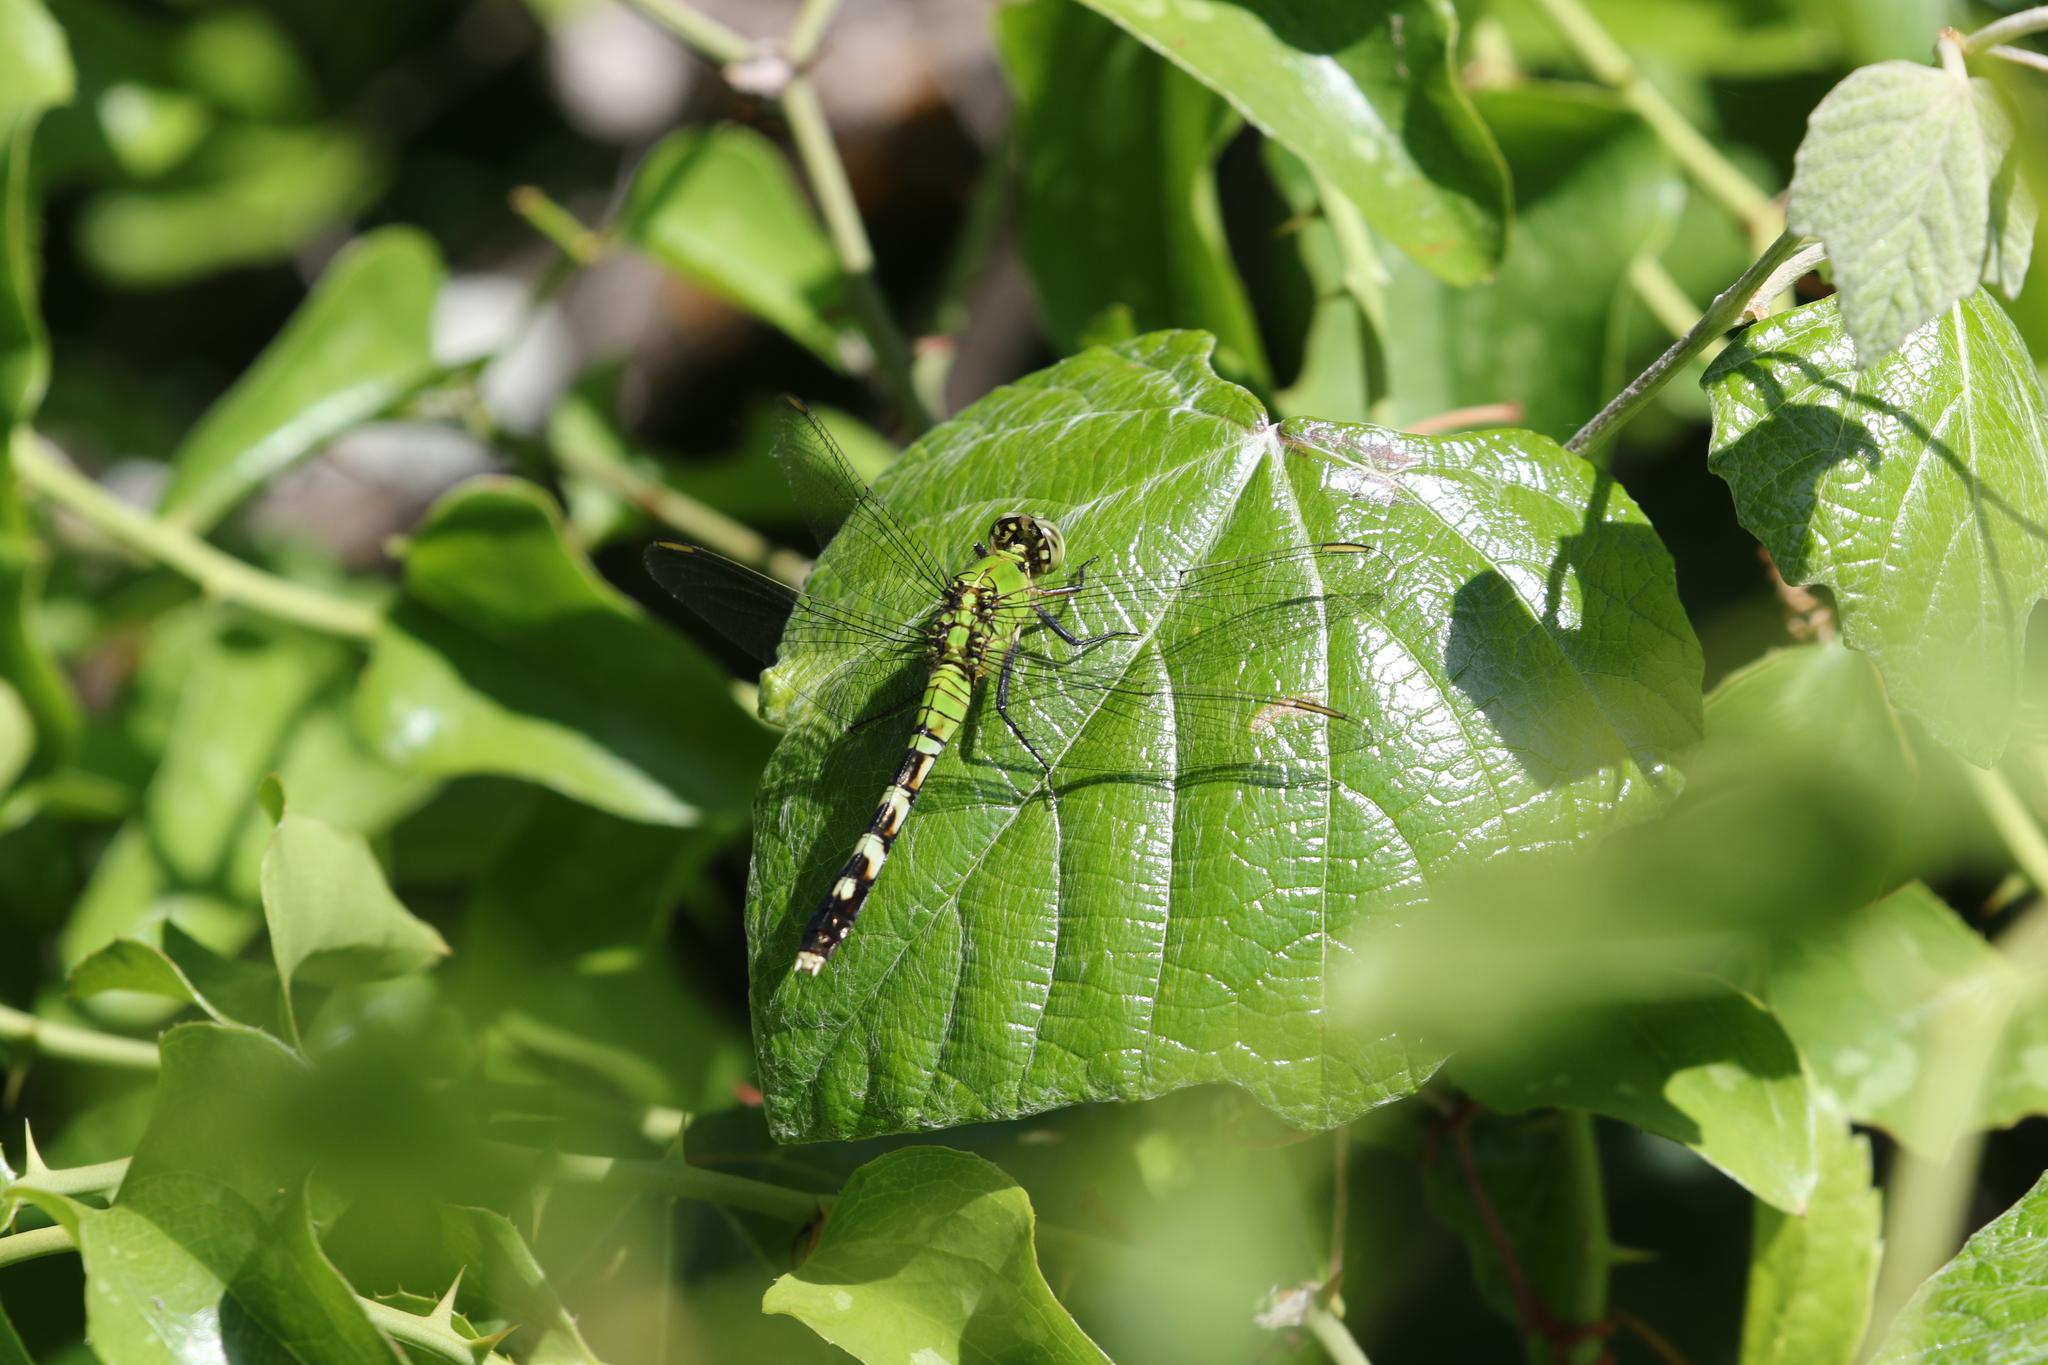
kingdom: Animalia
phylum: Arthropoda
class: Insecta
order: Odonata
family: Libellulidae
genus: Erythemis
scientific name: Erythemis simplicicollis
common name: Eastern pondhawk
